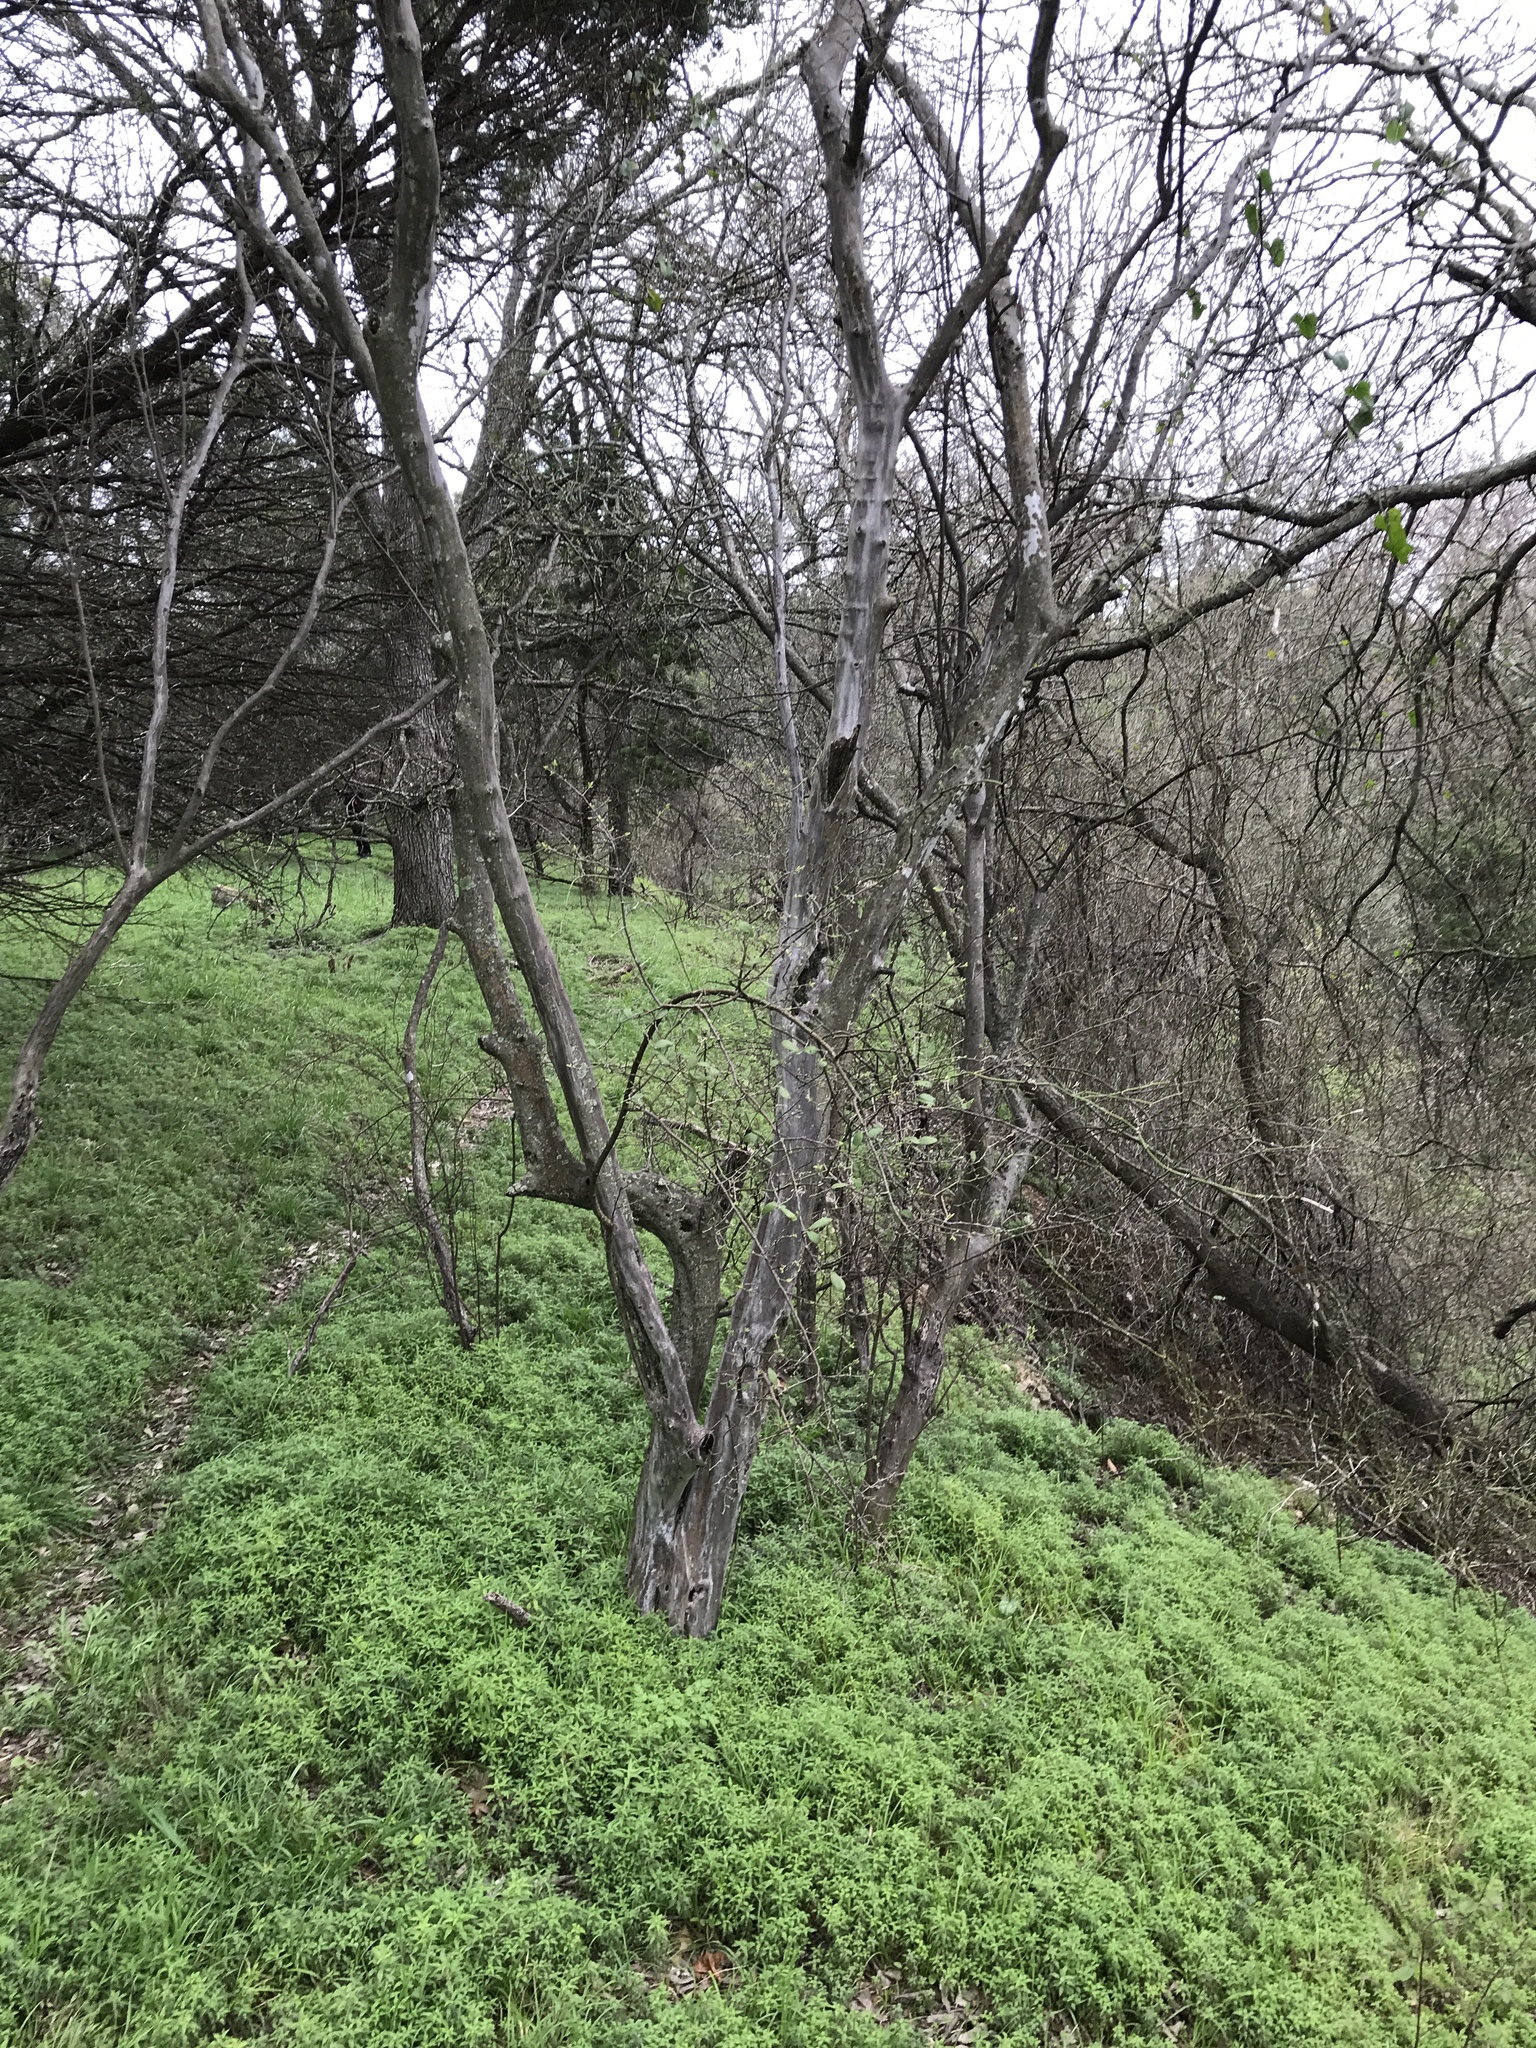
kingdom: Plantae
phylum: Tracheophyta
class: Magnoliopsida
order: Ericales
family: Ebenaceae
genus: Diospyros
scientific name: Diospyros texana
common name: Texas persimmon
